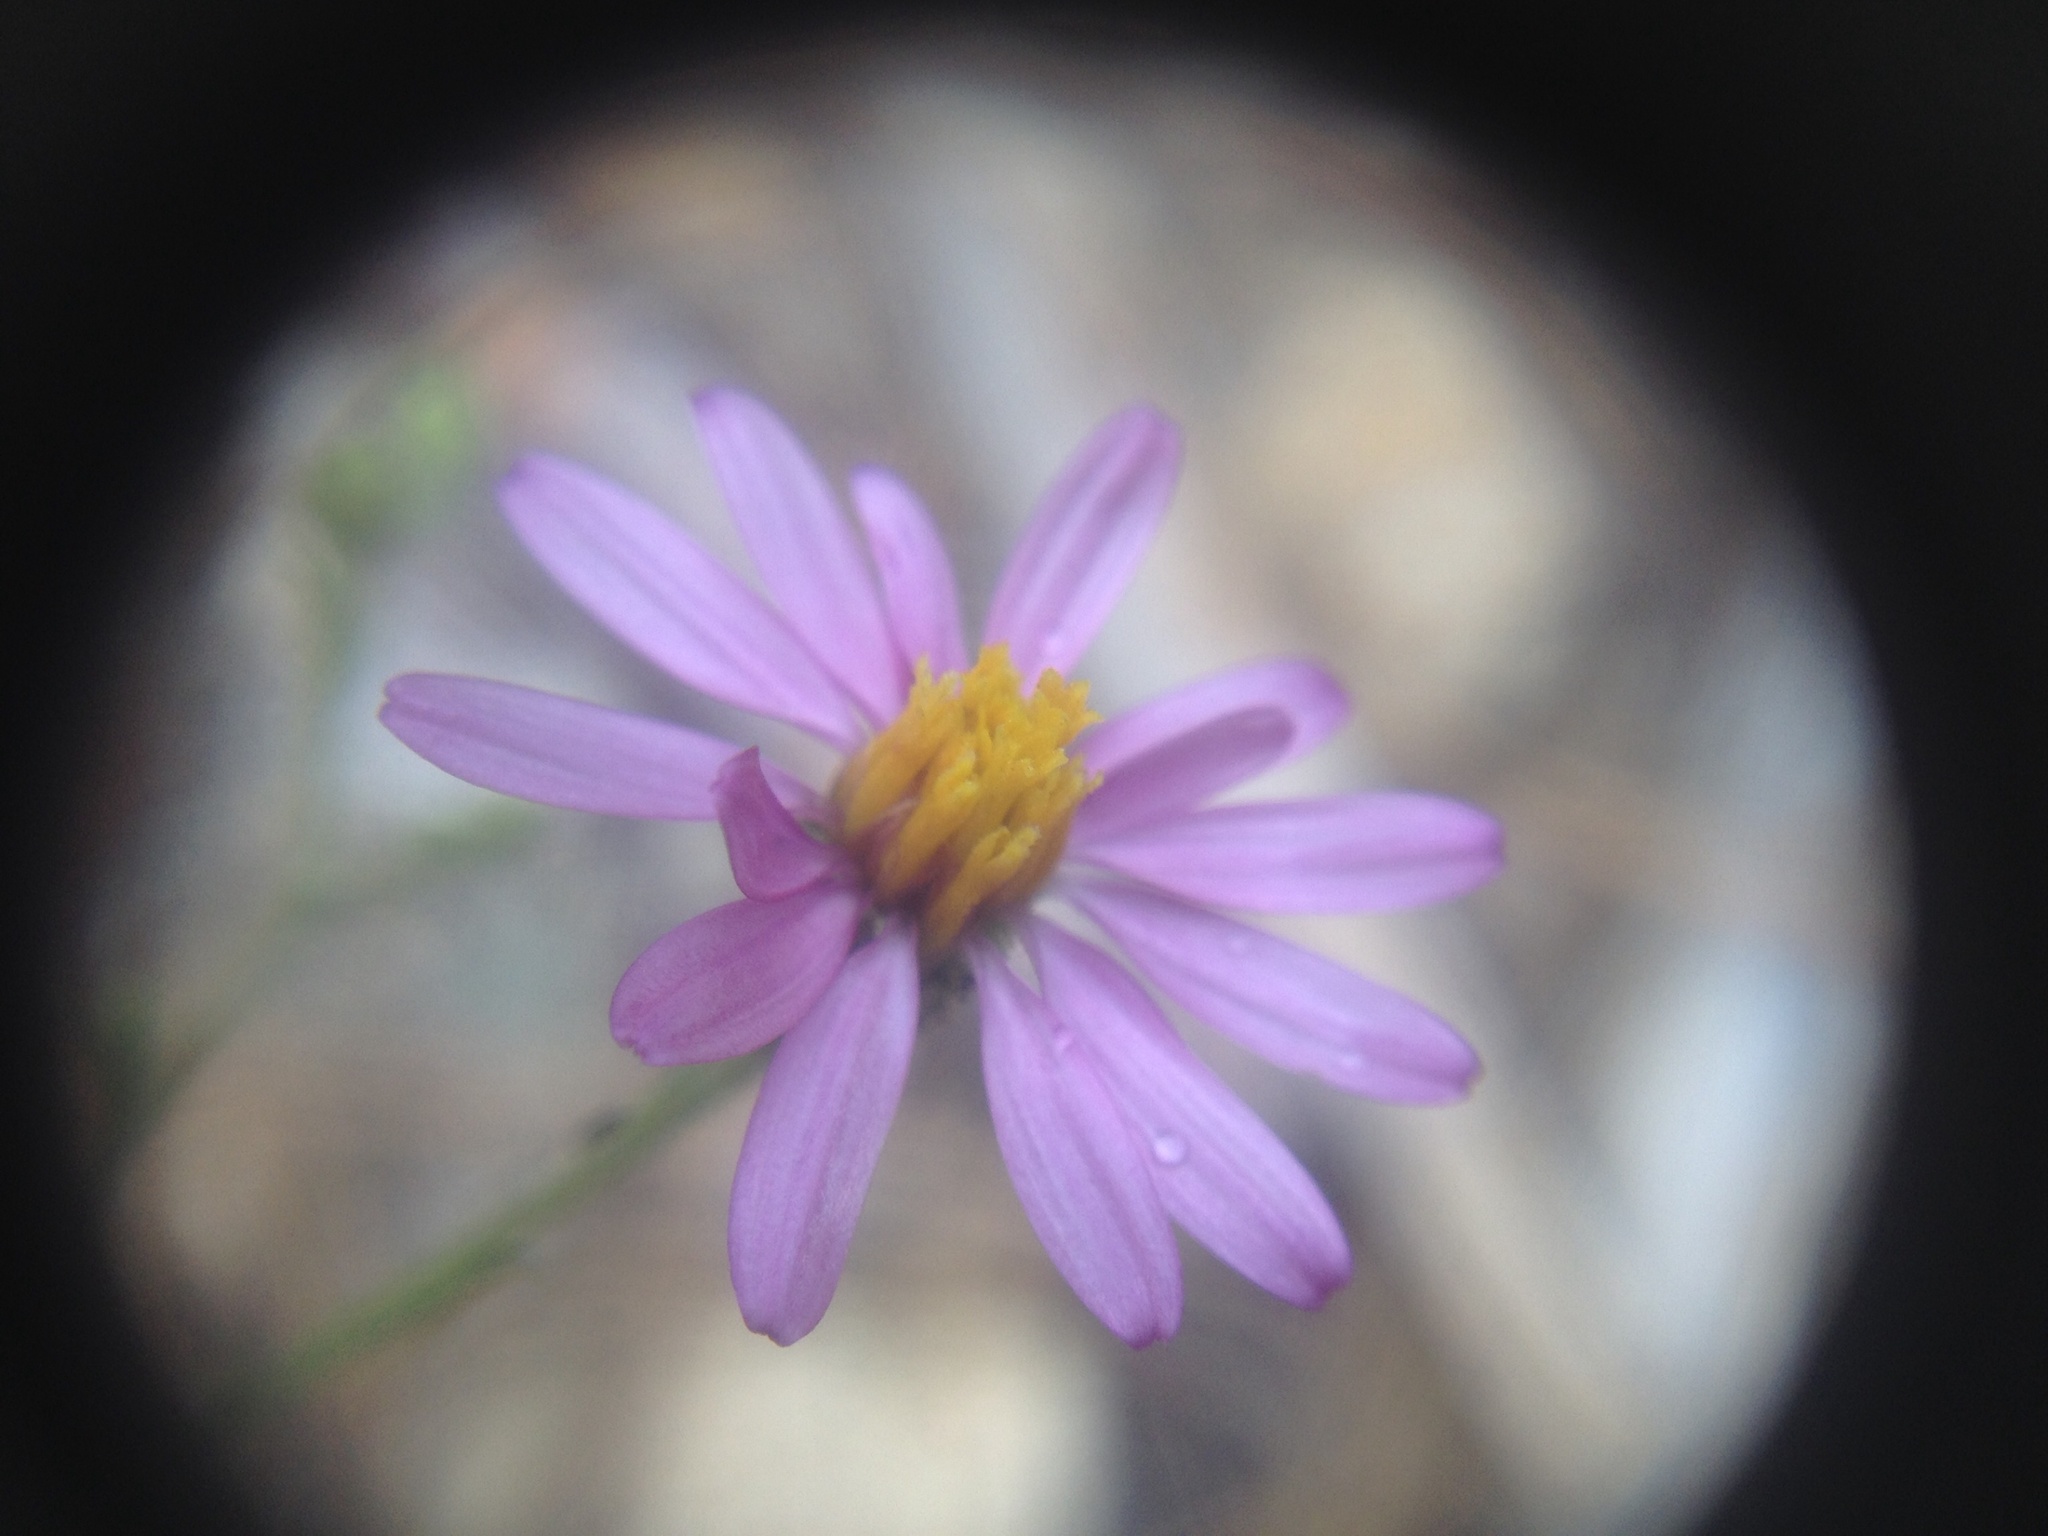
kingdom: Plantae
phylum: Tracheophyta
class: Magnoliopsida
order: Asterales
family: Asteraceae
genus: Corethrogyne
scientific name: Corethrogyne filaginifolia
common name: Sand-aster
